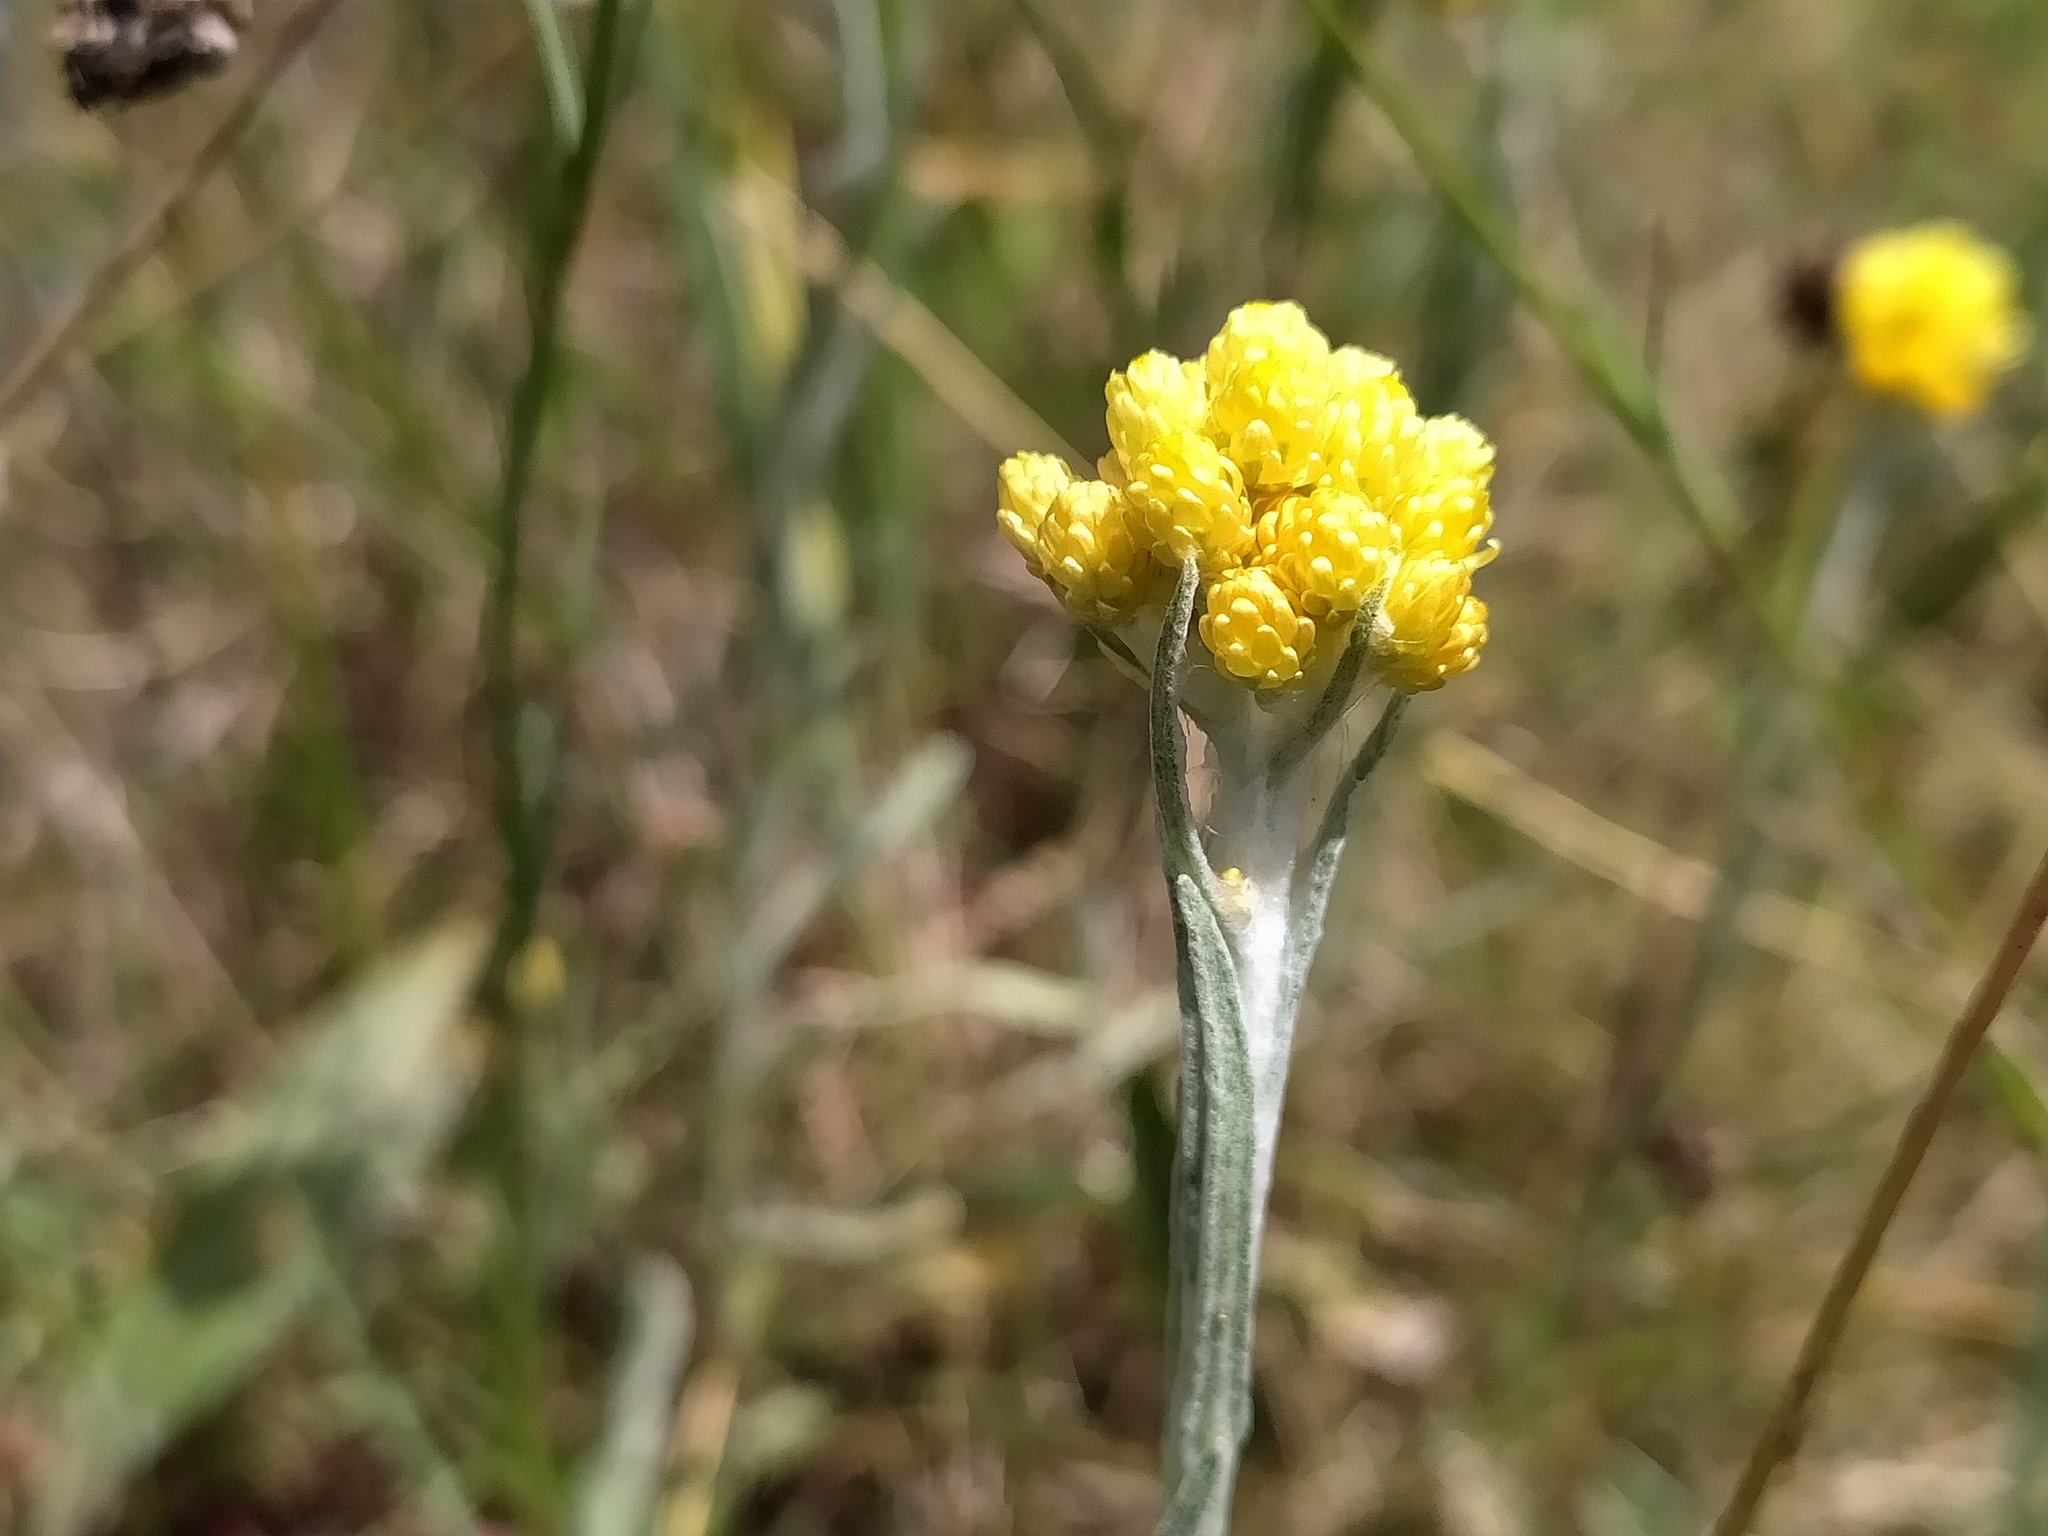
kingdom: Plantae
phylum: Tracheophyta
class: Magnoliopsida
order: Asterales
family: Asteraceae
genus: Helichrysum
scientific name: Helichrysum arenarium
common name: Strawflower
